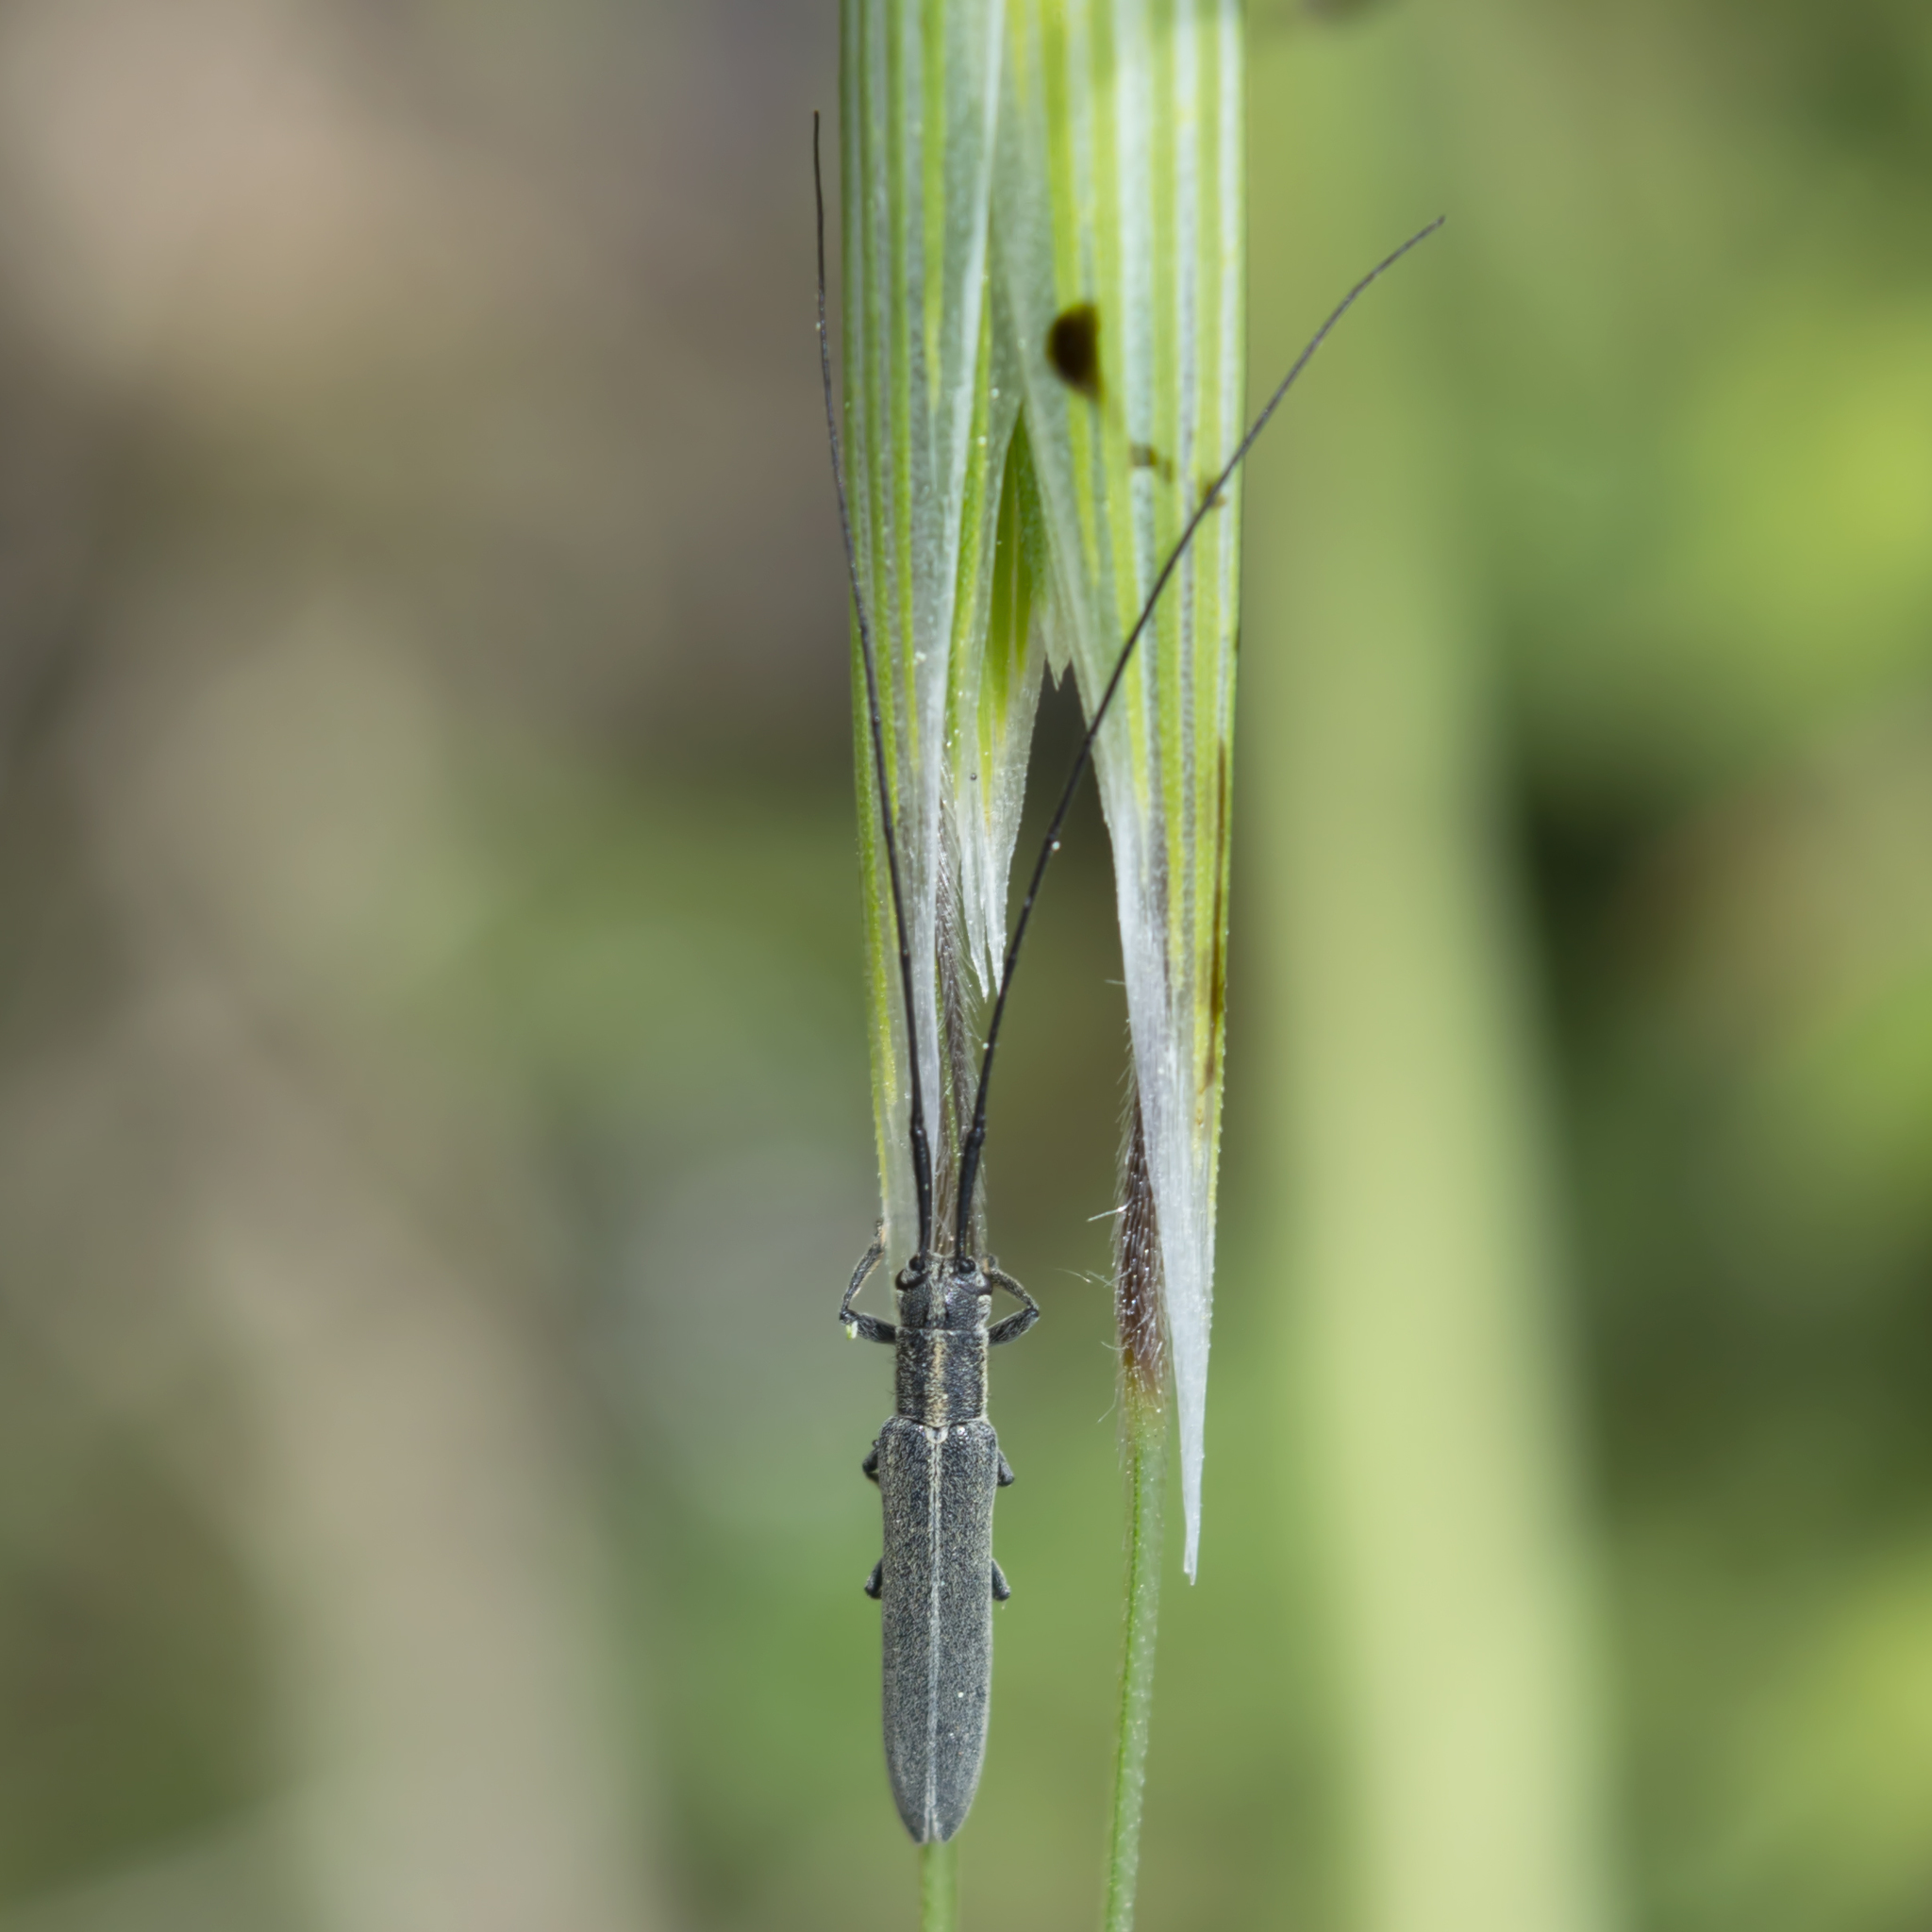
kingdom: Animalia
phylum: Arthropoda
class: Insecta
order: Coleoptera
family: Cerambycidae
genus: Calamobius
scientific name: Calamobius filum
